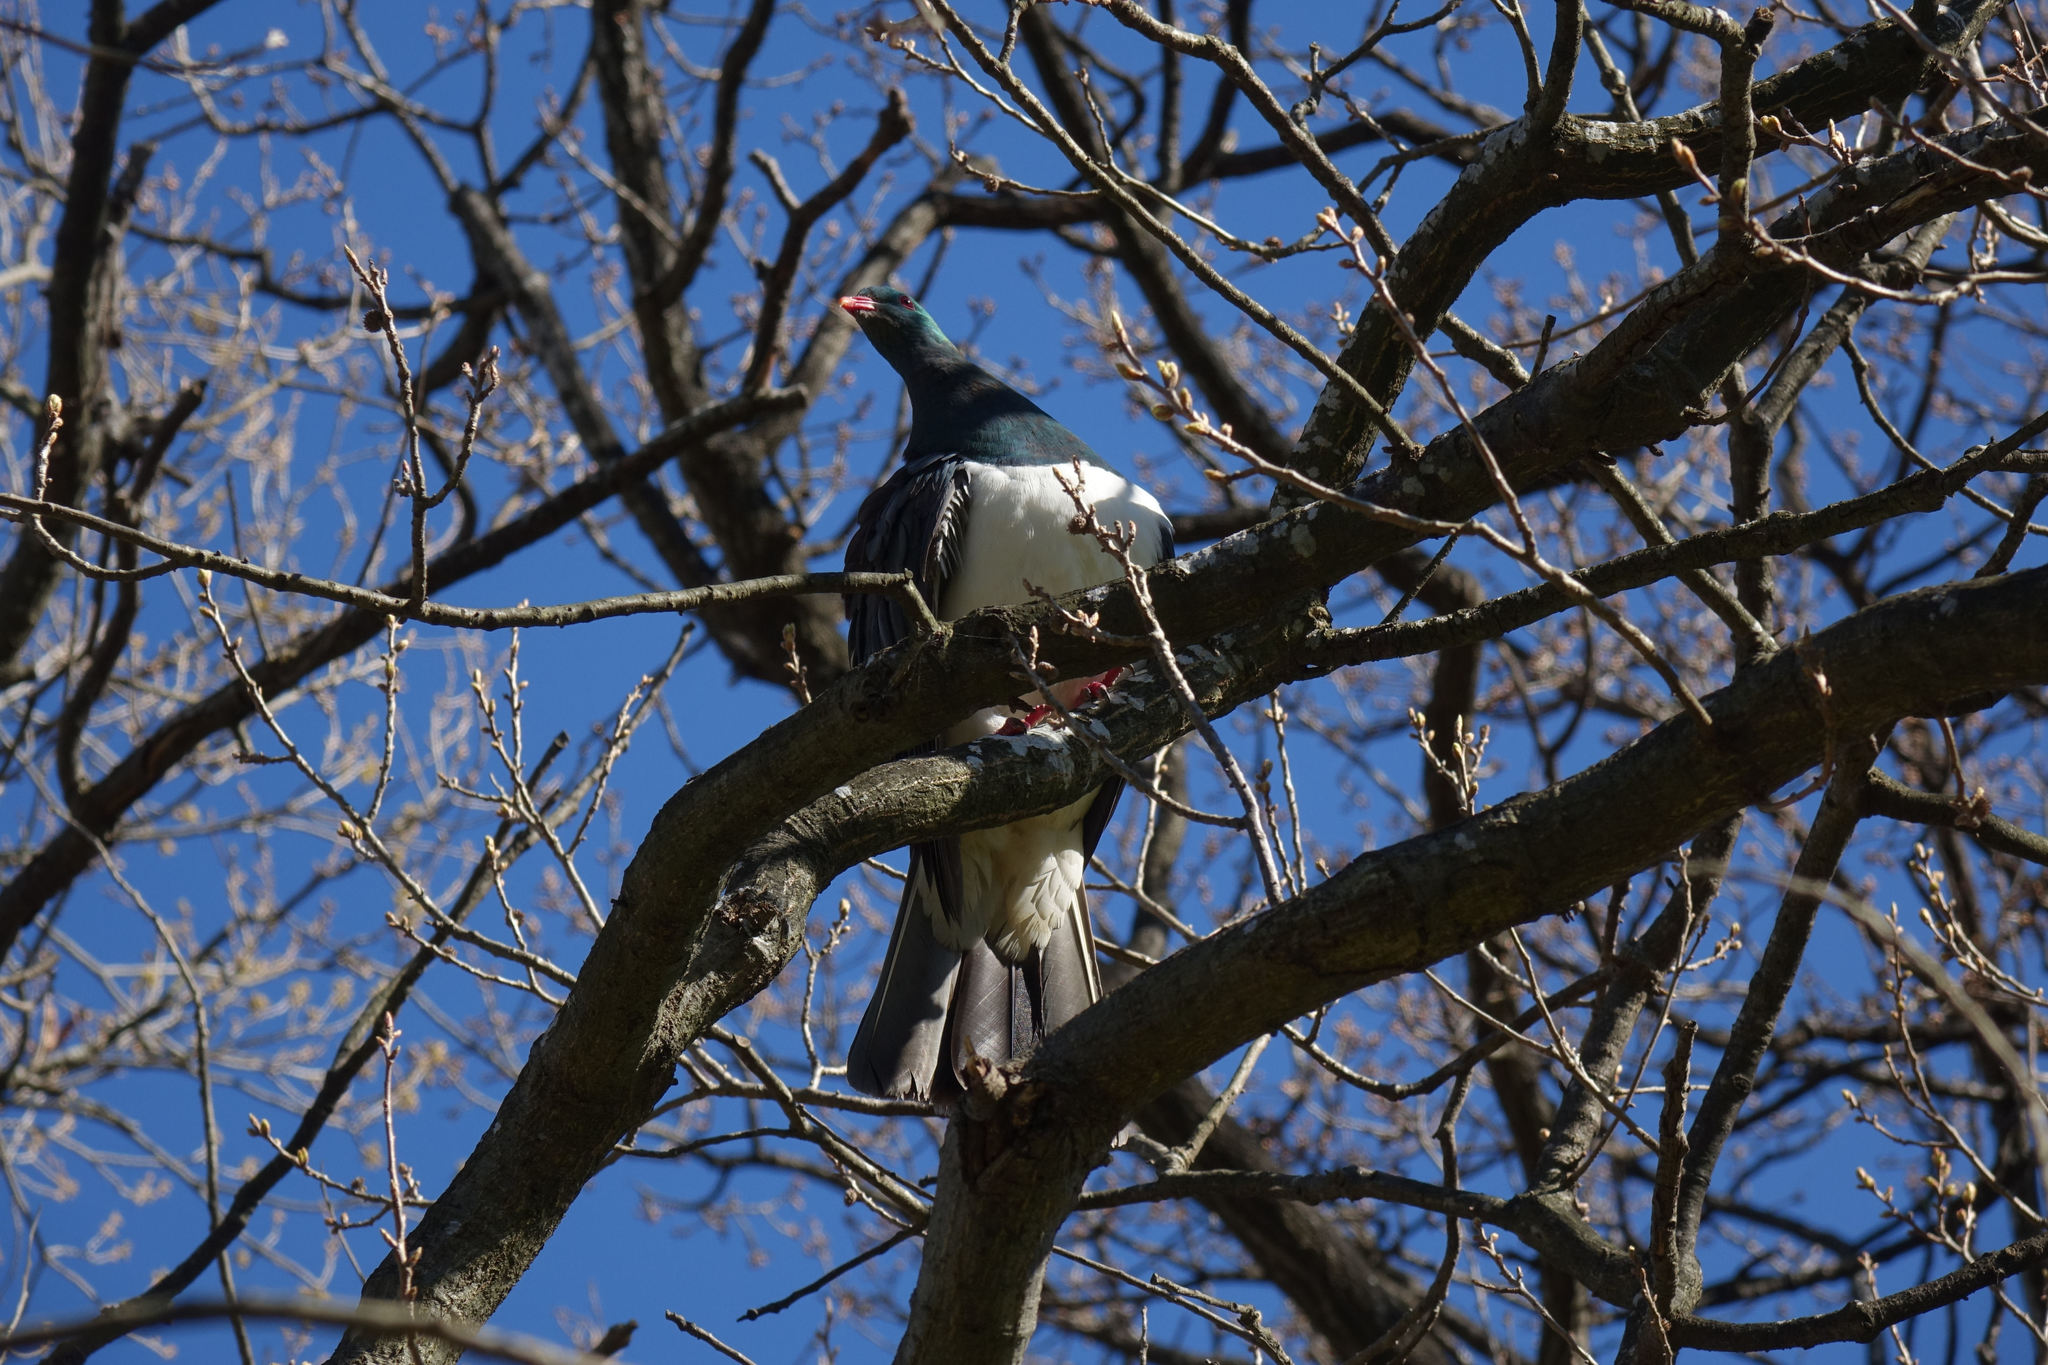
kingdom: Animalia
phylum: Chordata
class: Aves
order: Columbiformes
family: Columbidae
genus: Hemiphaga
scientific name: Hemiphaga novaeseelandiae
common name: New zealand pigeon
